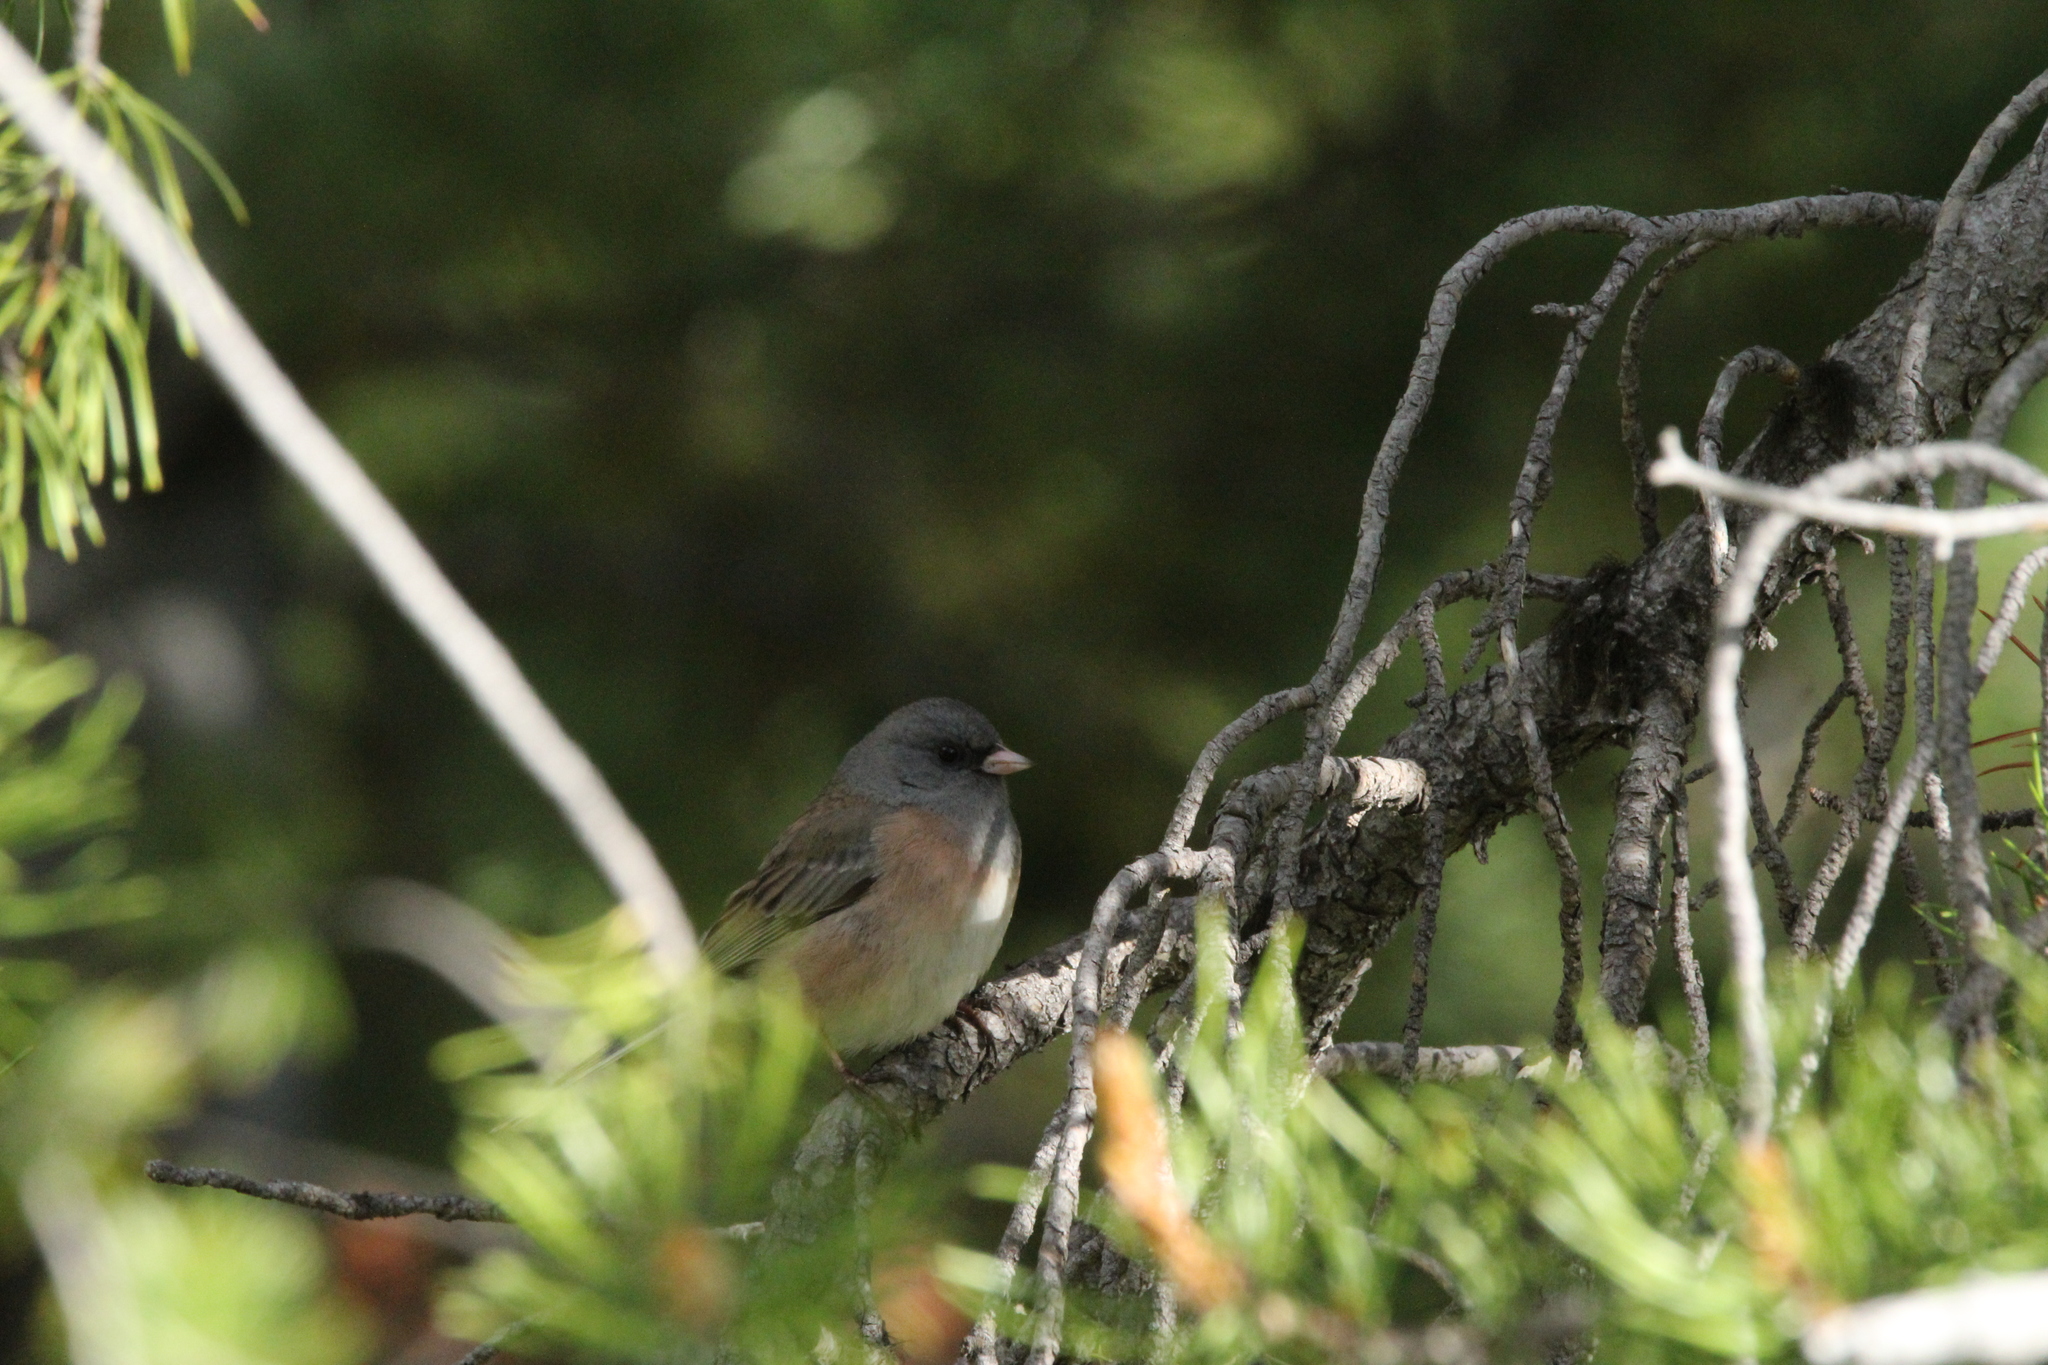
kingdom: Animalia
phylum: Chordata
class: Aves
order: Passeriformes
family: Passerellidae
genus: Junco
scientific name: Junco hyemalis
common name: Dark-eyed junco
